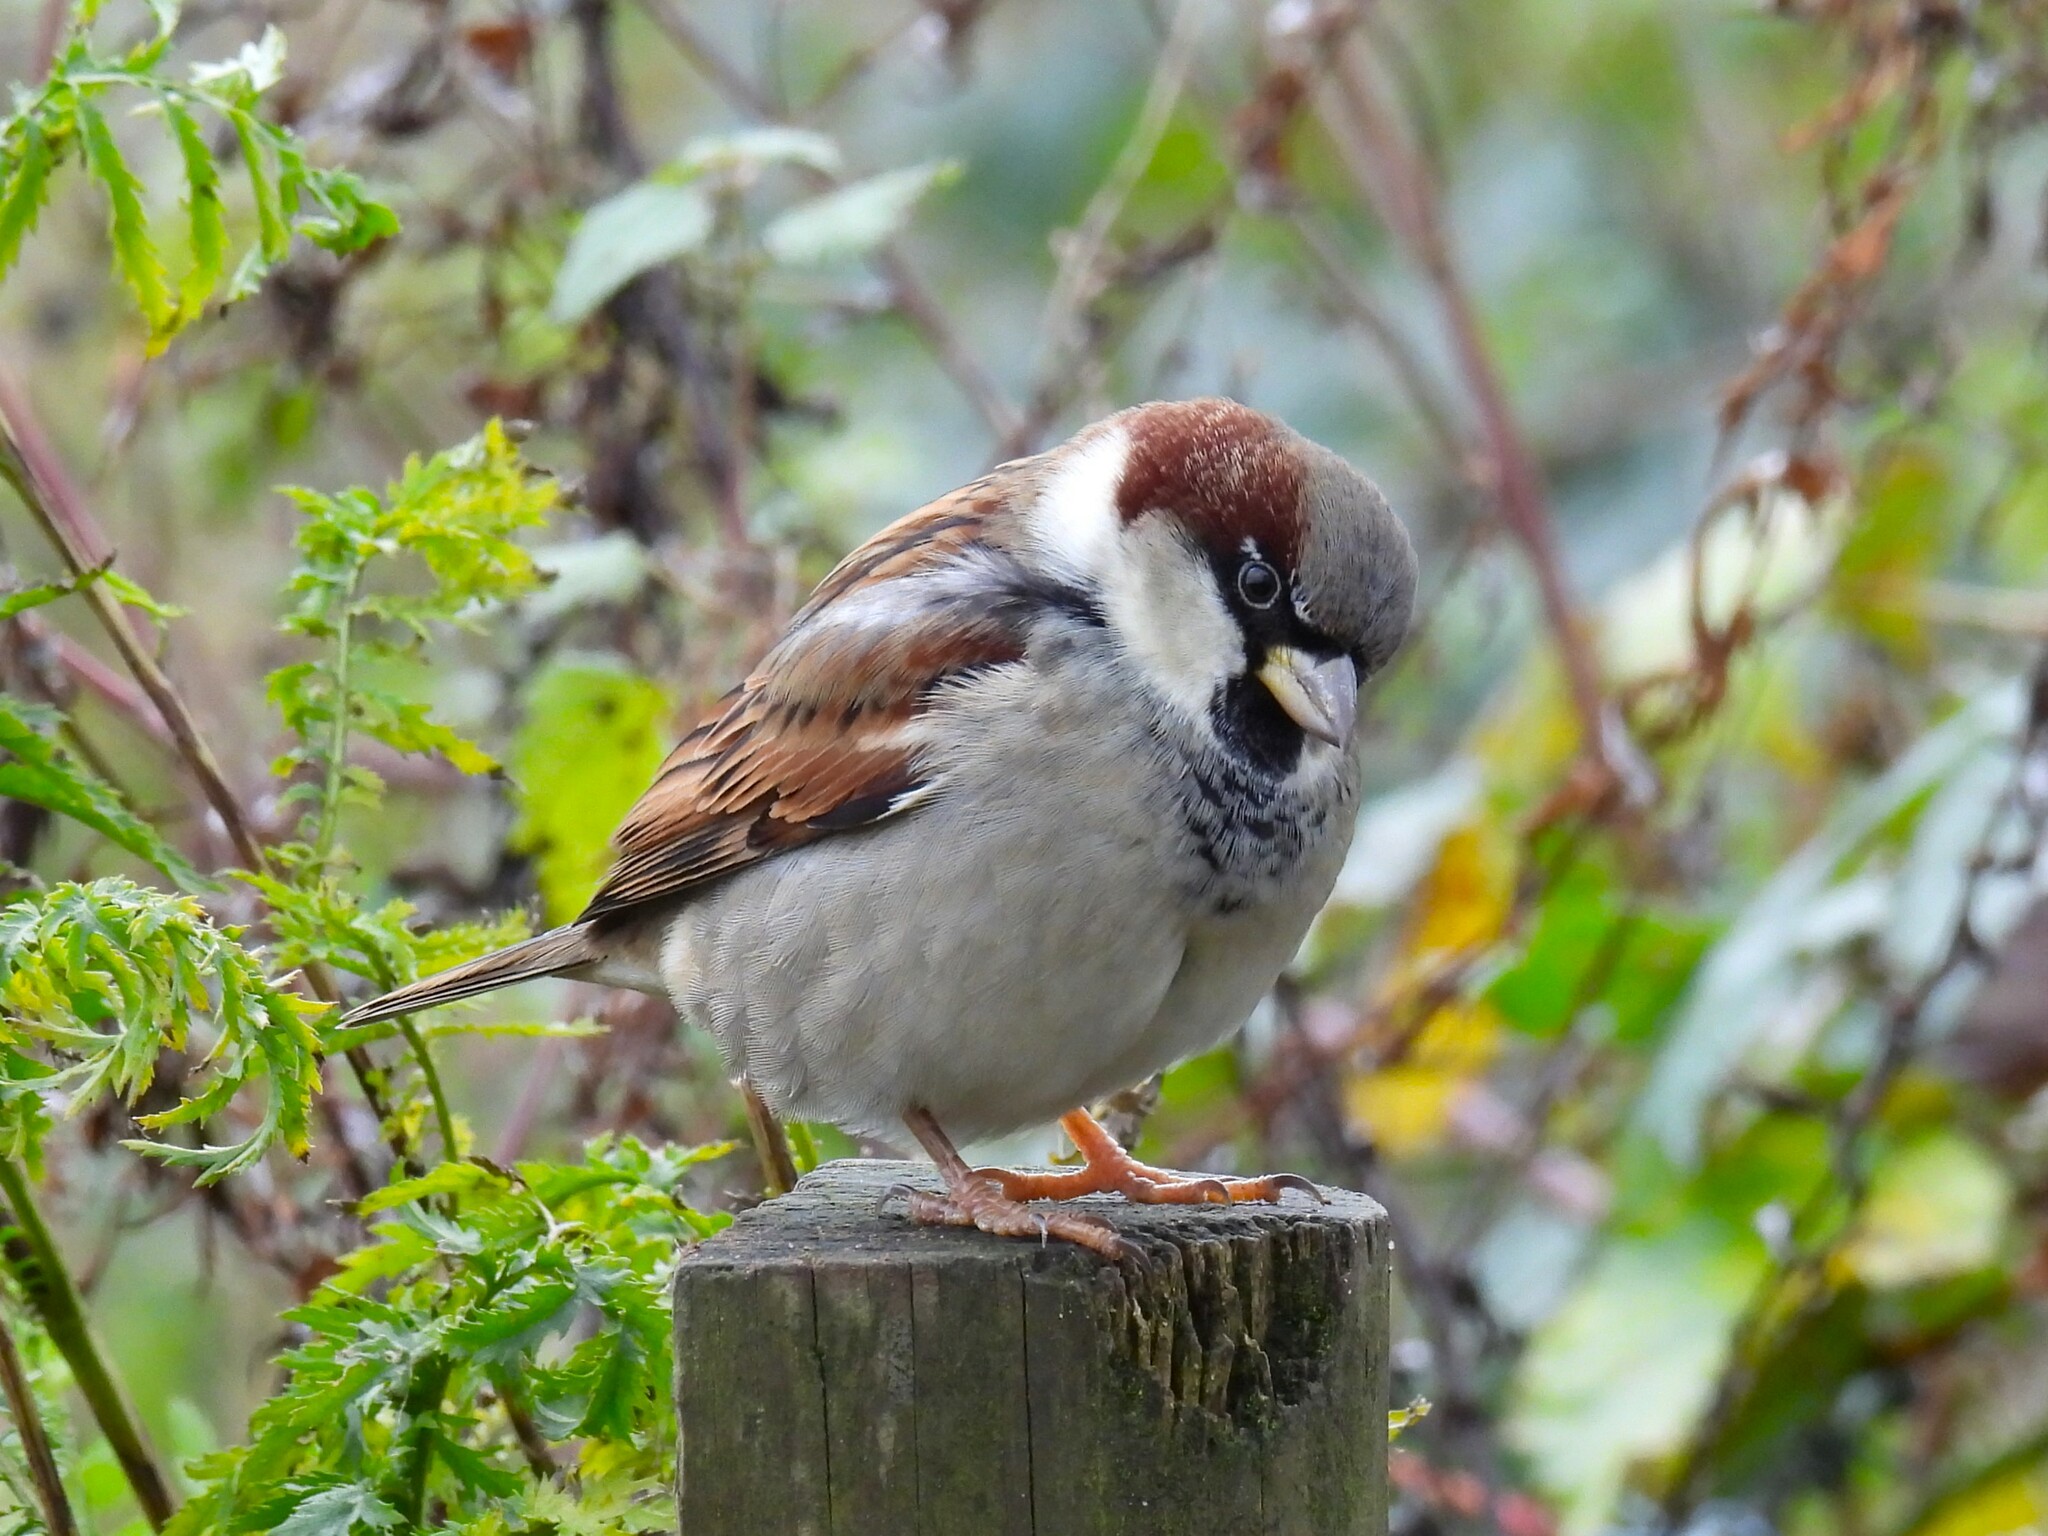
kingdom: Animalia
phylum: Chordata
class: Aves
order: Passeriformes
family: Passeridae
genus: Passer
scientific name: Passer domesticus
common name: House sparrow
